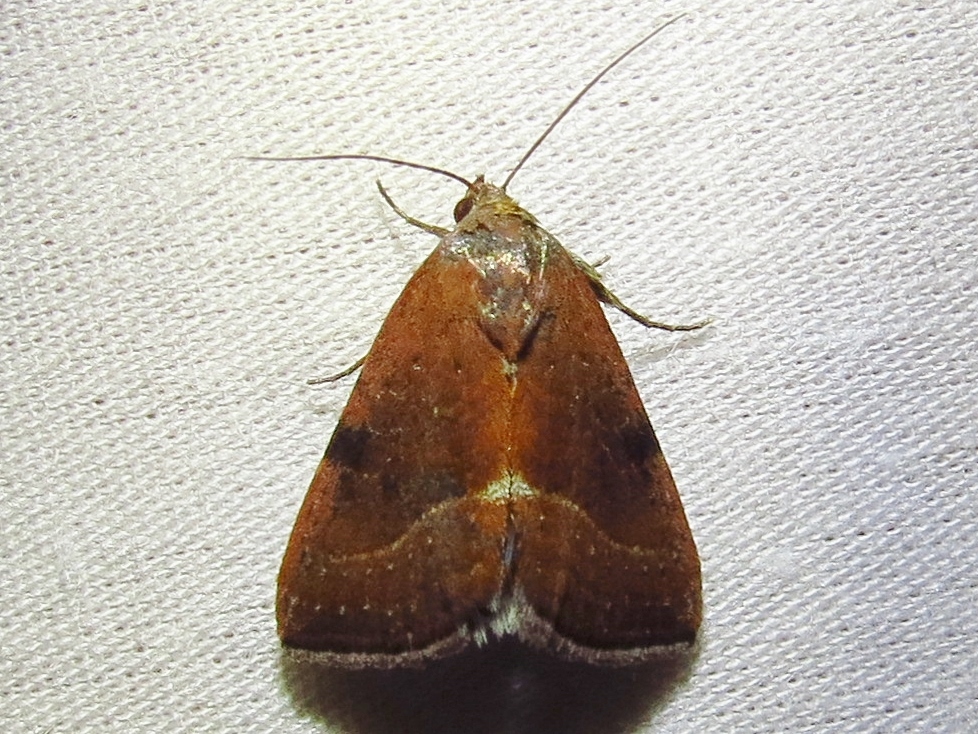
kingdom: Animalia
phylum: Arthropoda
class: Insecta
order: Lepidoptera
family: Noctuidae
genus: Galgula
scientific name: Galgula partita
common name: Wedgeling
